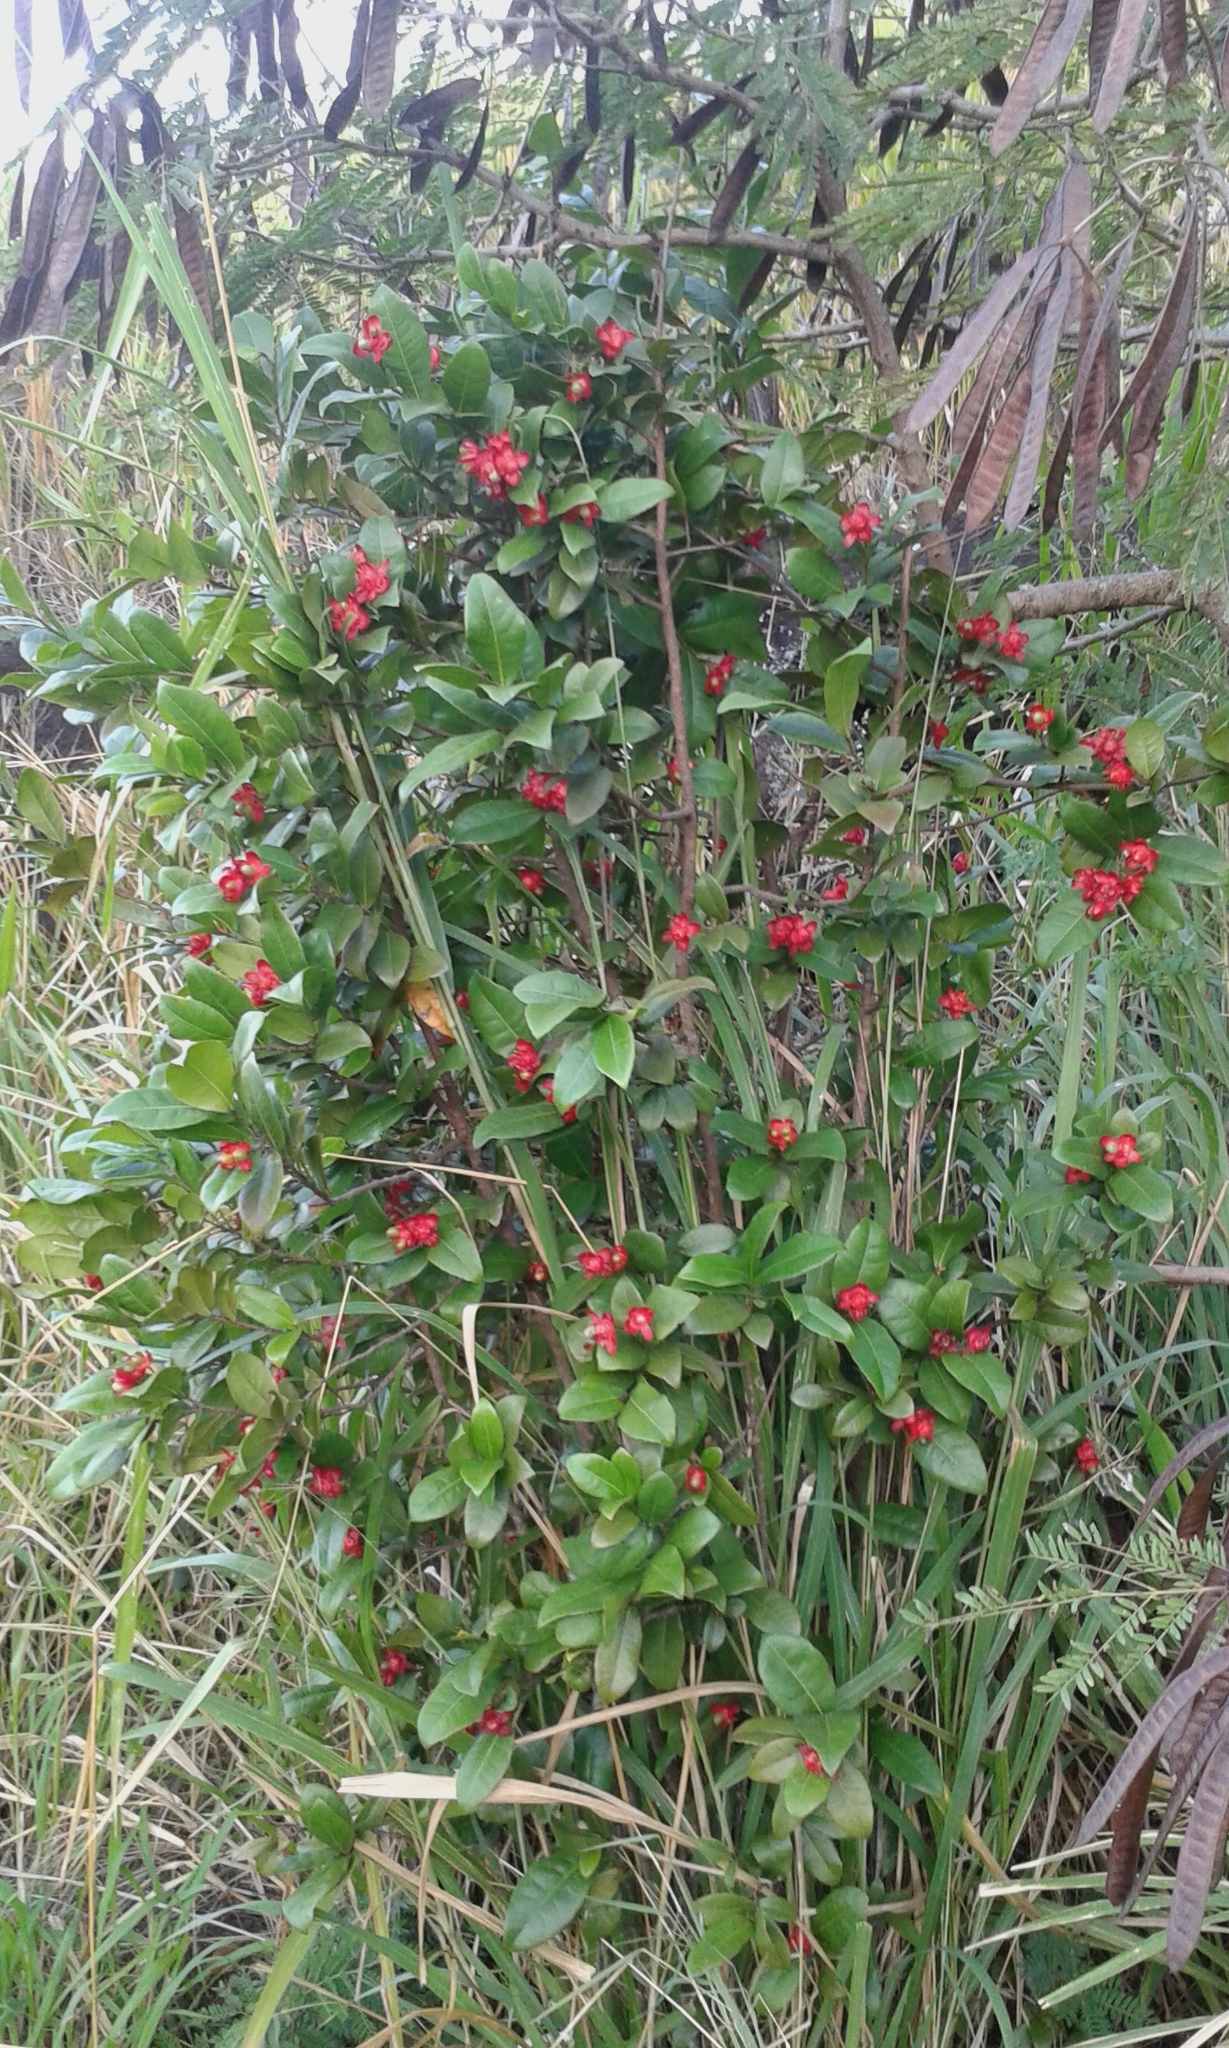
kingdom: Plantae
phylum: Tracheophyta
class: Magnoliopsida
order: Malpighiales
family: Ochnaceae
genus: Ochna
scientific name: Ochna thomasiana
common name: Thomas' bird's-eye bush
